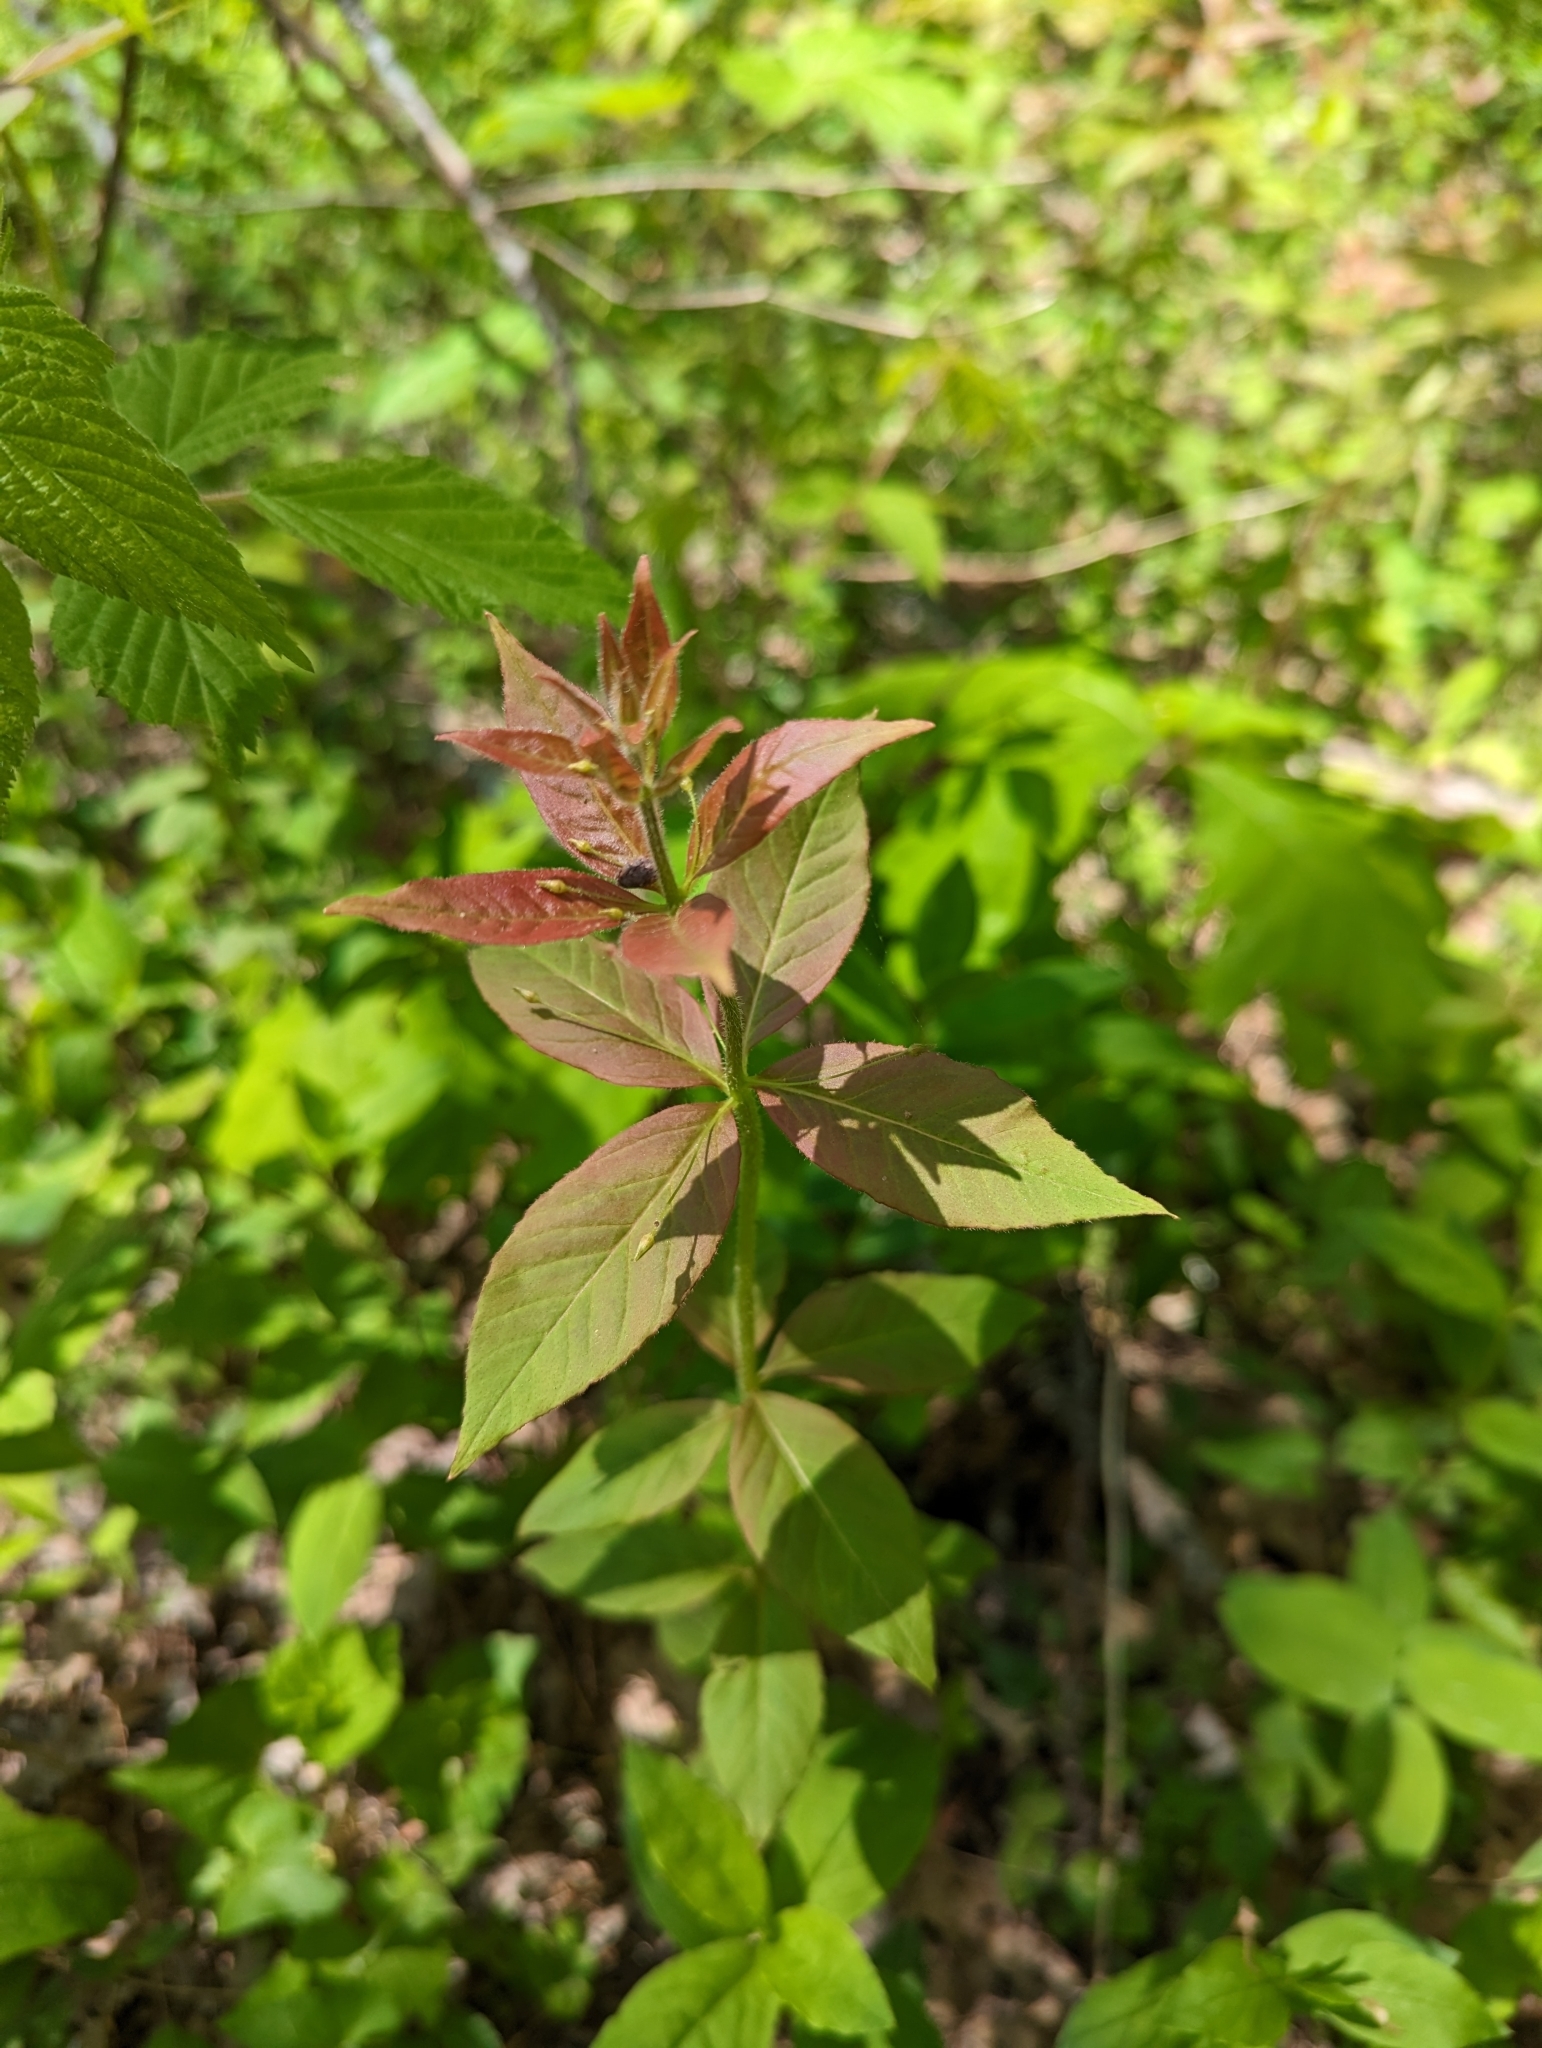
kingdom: Plantae
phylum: Tracheophyta
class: Magnoliopsida
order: Ericales
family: Primulaceae
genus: Lysimachia
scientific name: Lysimachia quadrifolia
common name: Whorled loosestrife
